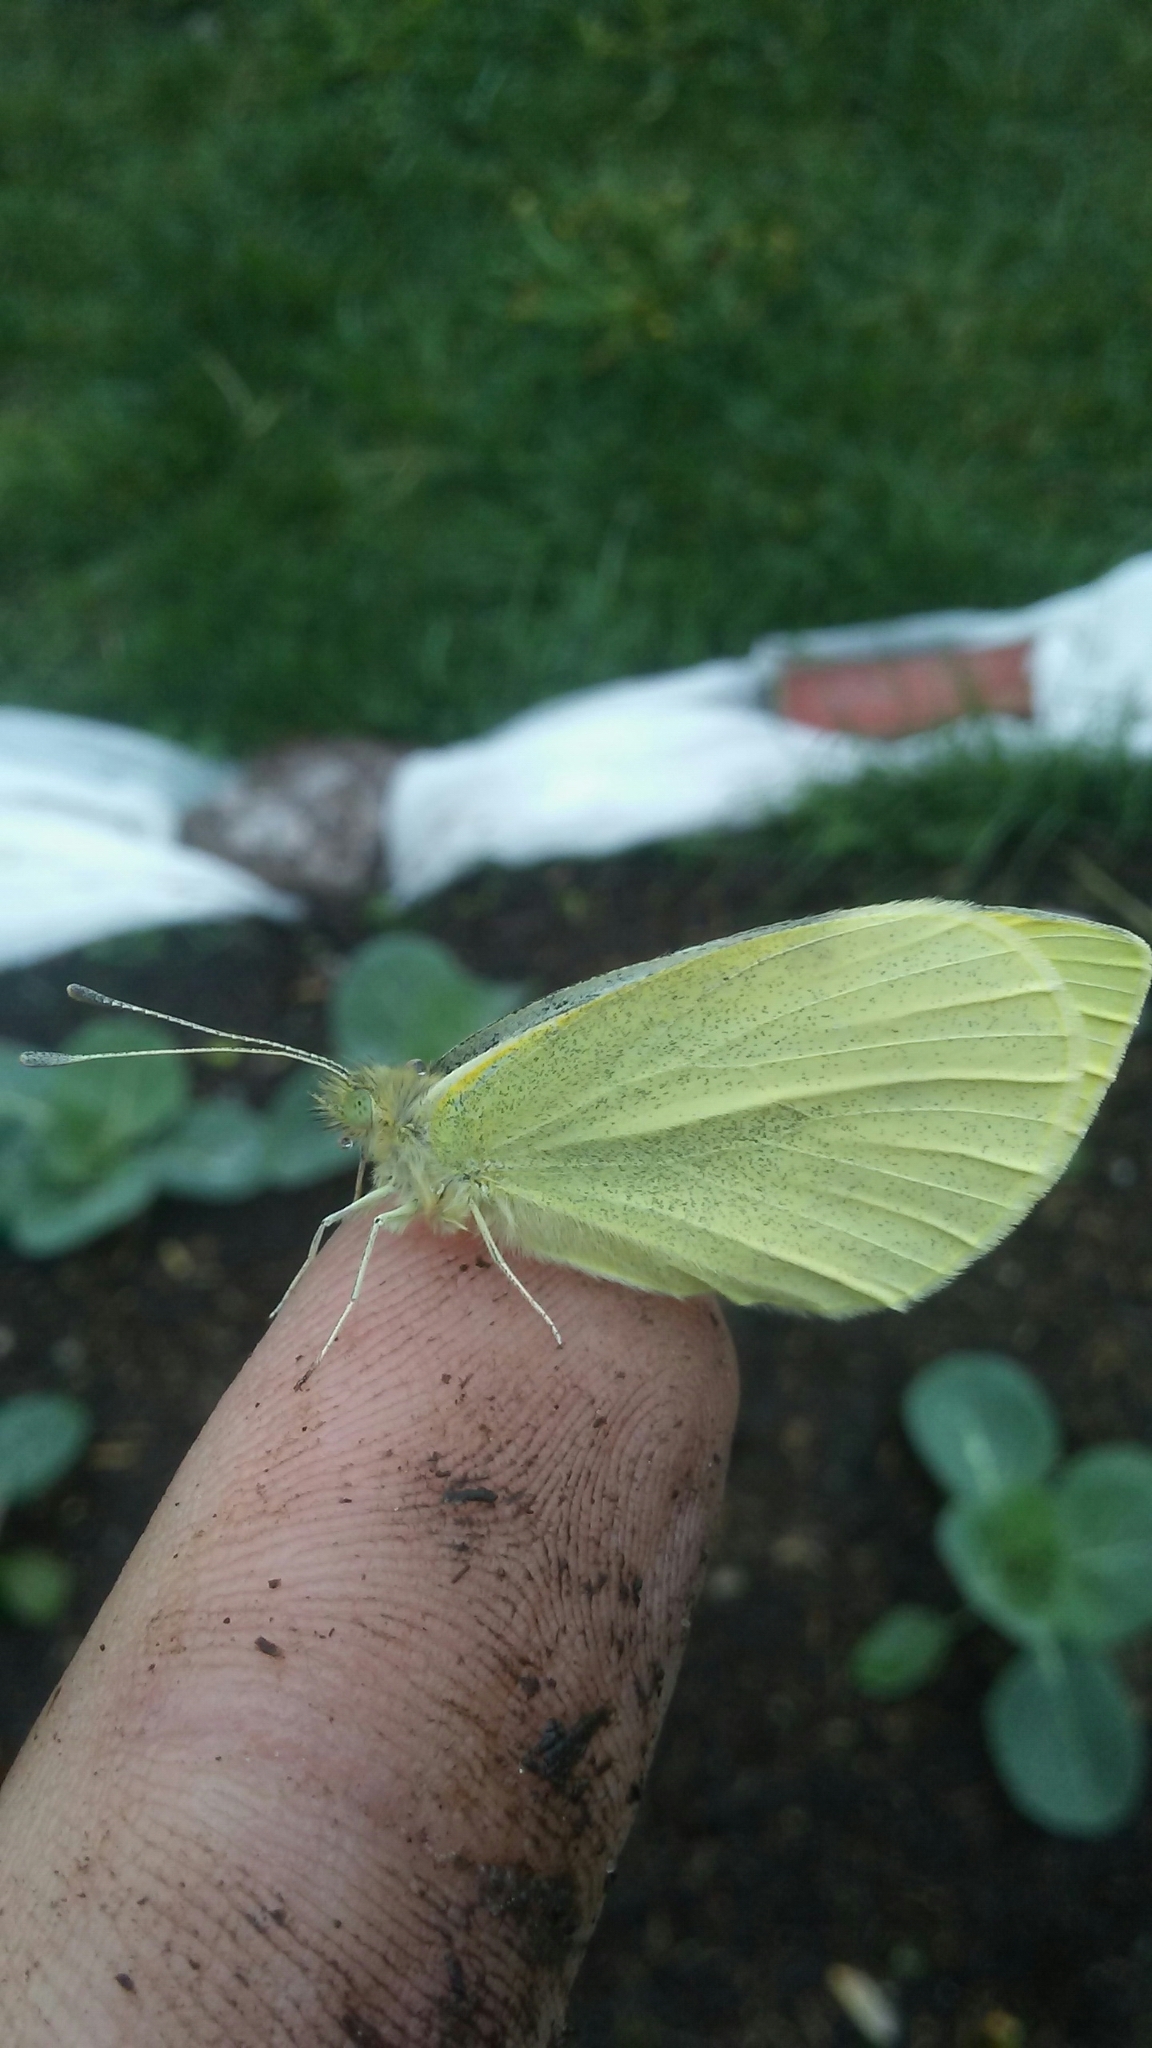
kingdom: Animalia
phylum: Arthropoda
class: Insecta
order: Lepidoptera
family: Pieridae
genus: Pieris
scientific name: Pieris rapae
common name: Small white
